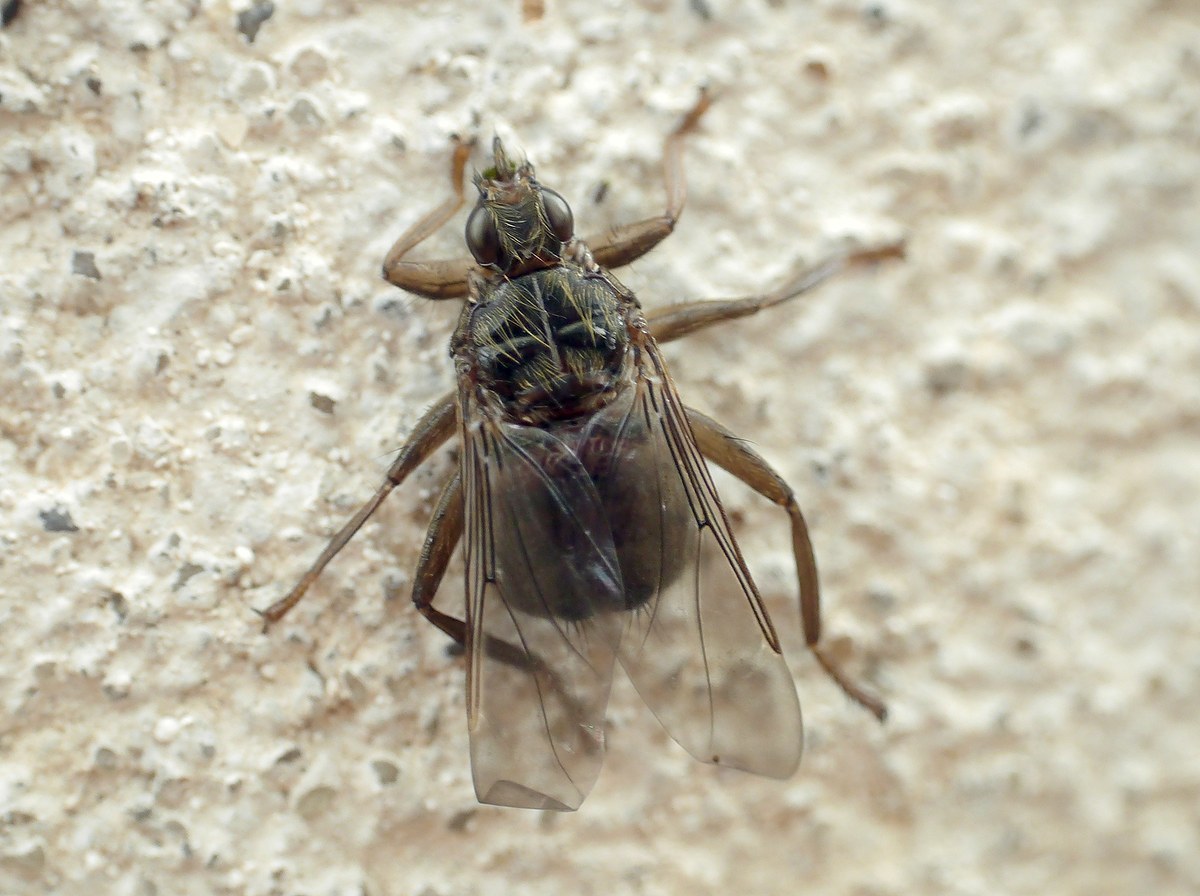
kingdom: Animalia
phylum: Arthropoda
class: Insecta
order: Diptera
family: Hippoboscidae
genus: Pseudolynchia
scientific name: Pseudolynchia canariensis
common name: Louse fly
